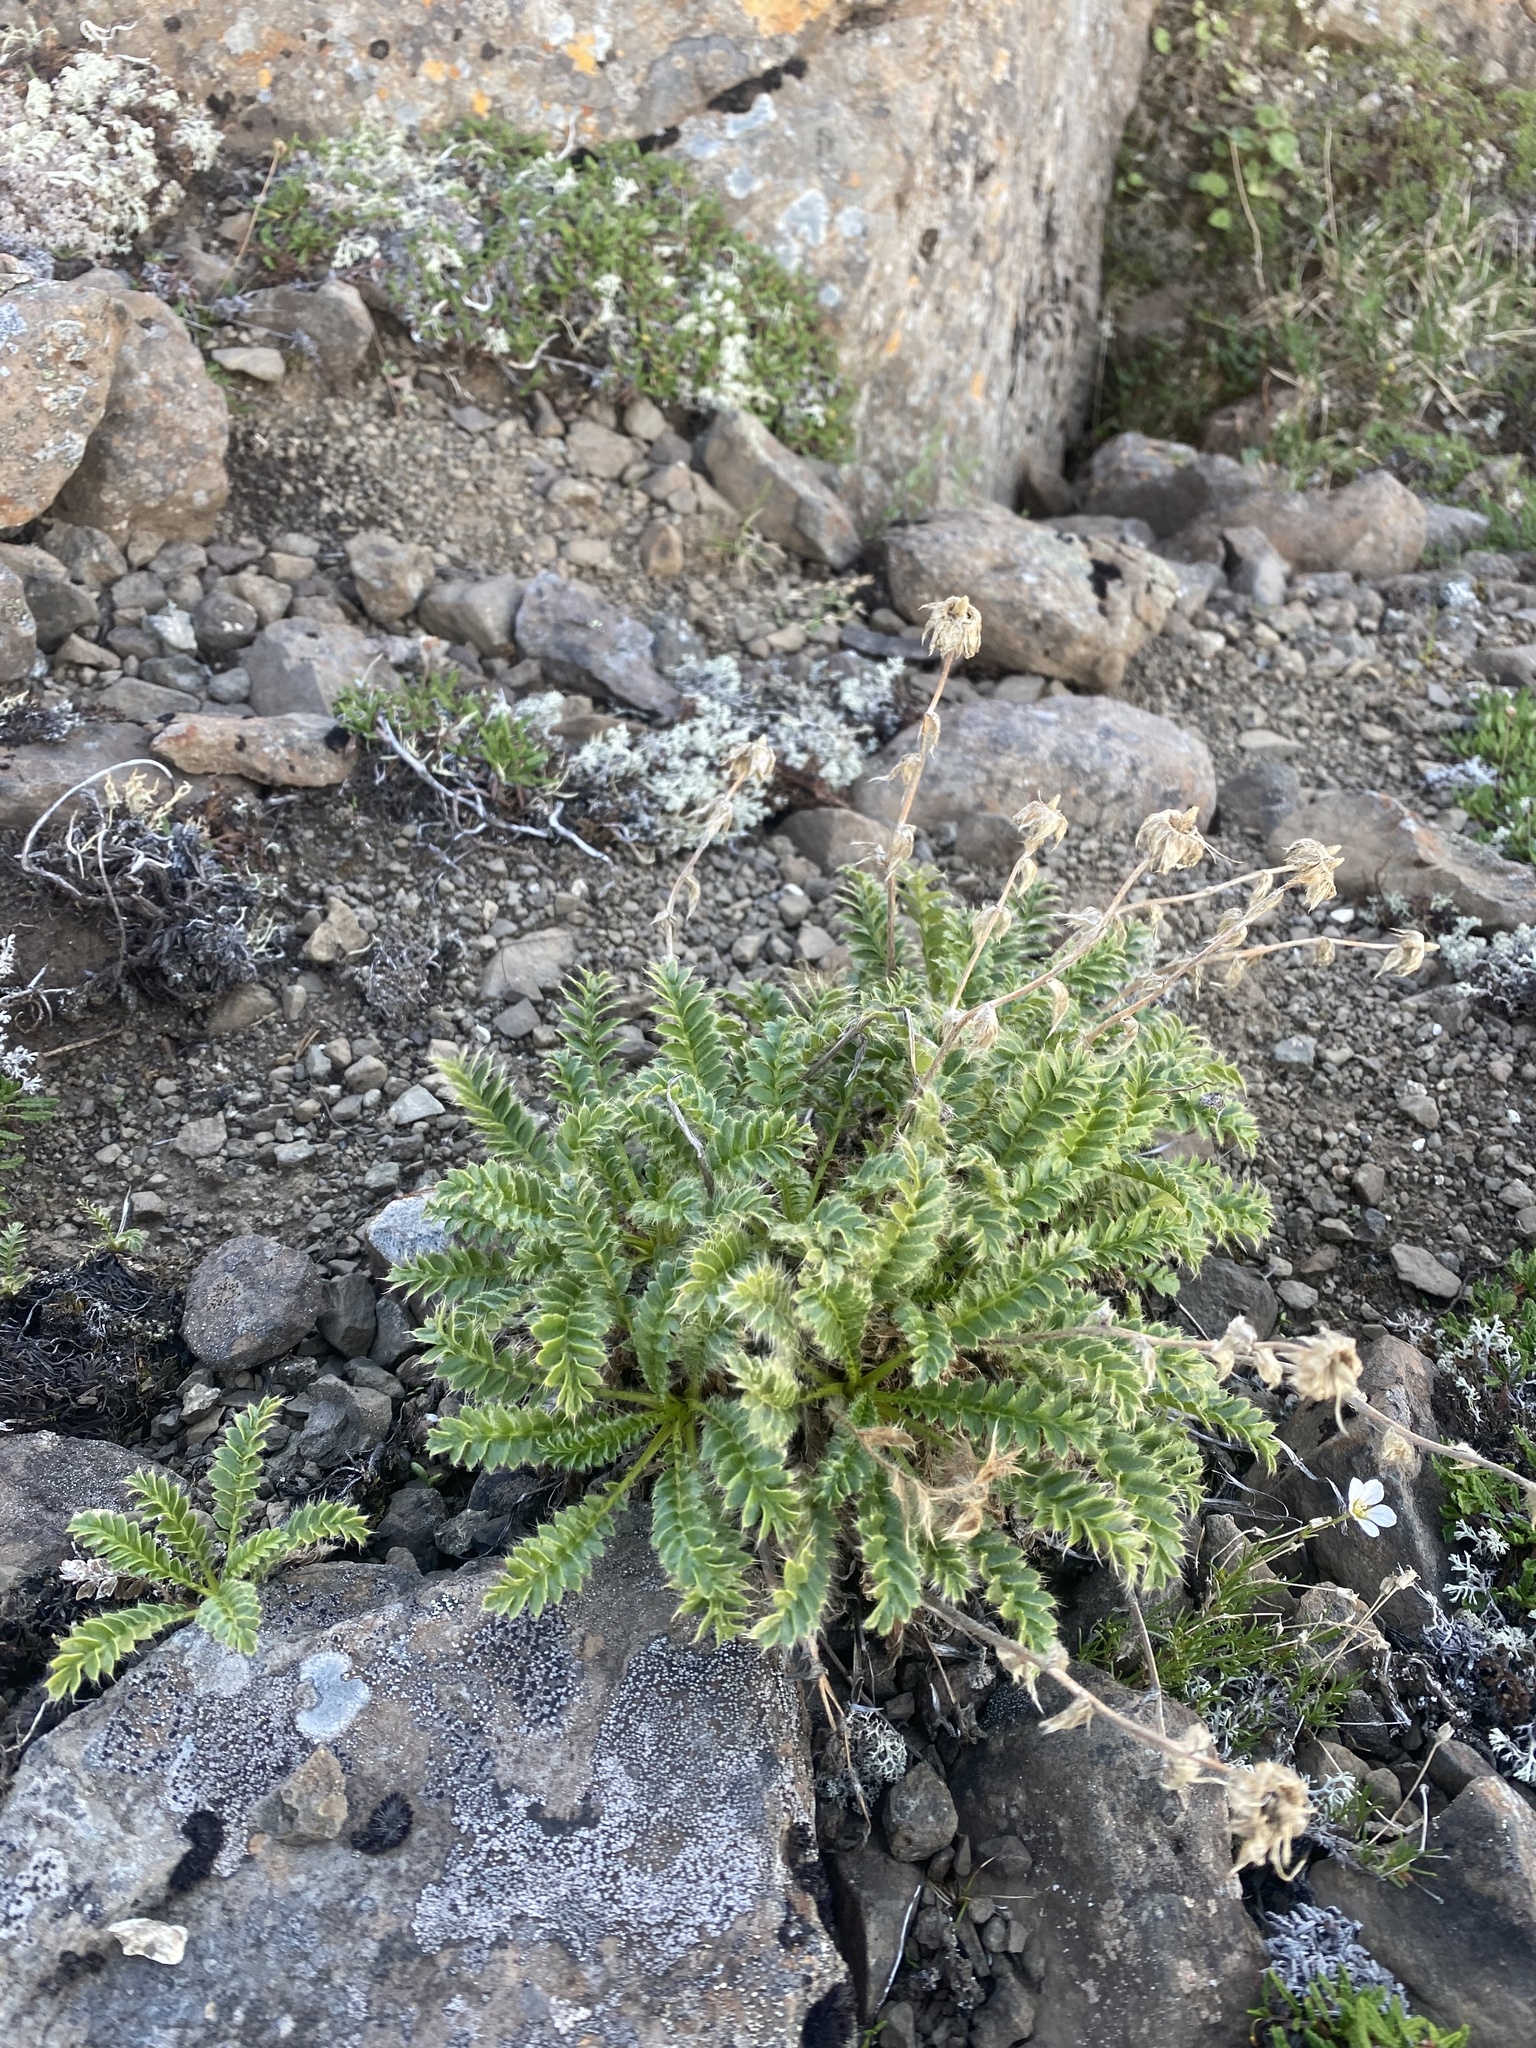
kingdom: Plantae
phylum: Tracheophyta
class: Magnoliopsida
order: Rosales
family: Rosaceae
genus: Geum
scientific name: Geum glaciale
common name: Glacier avens
